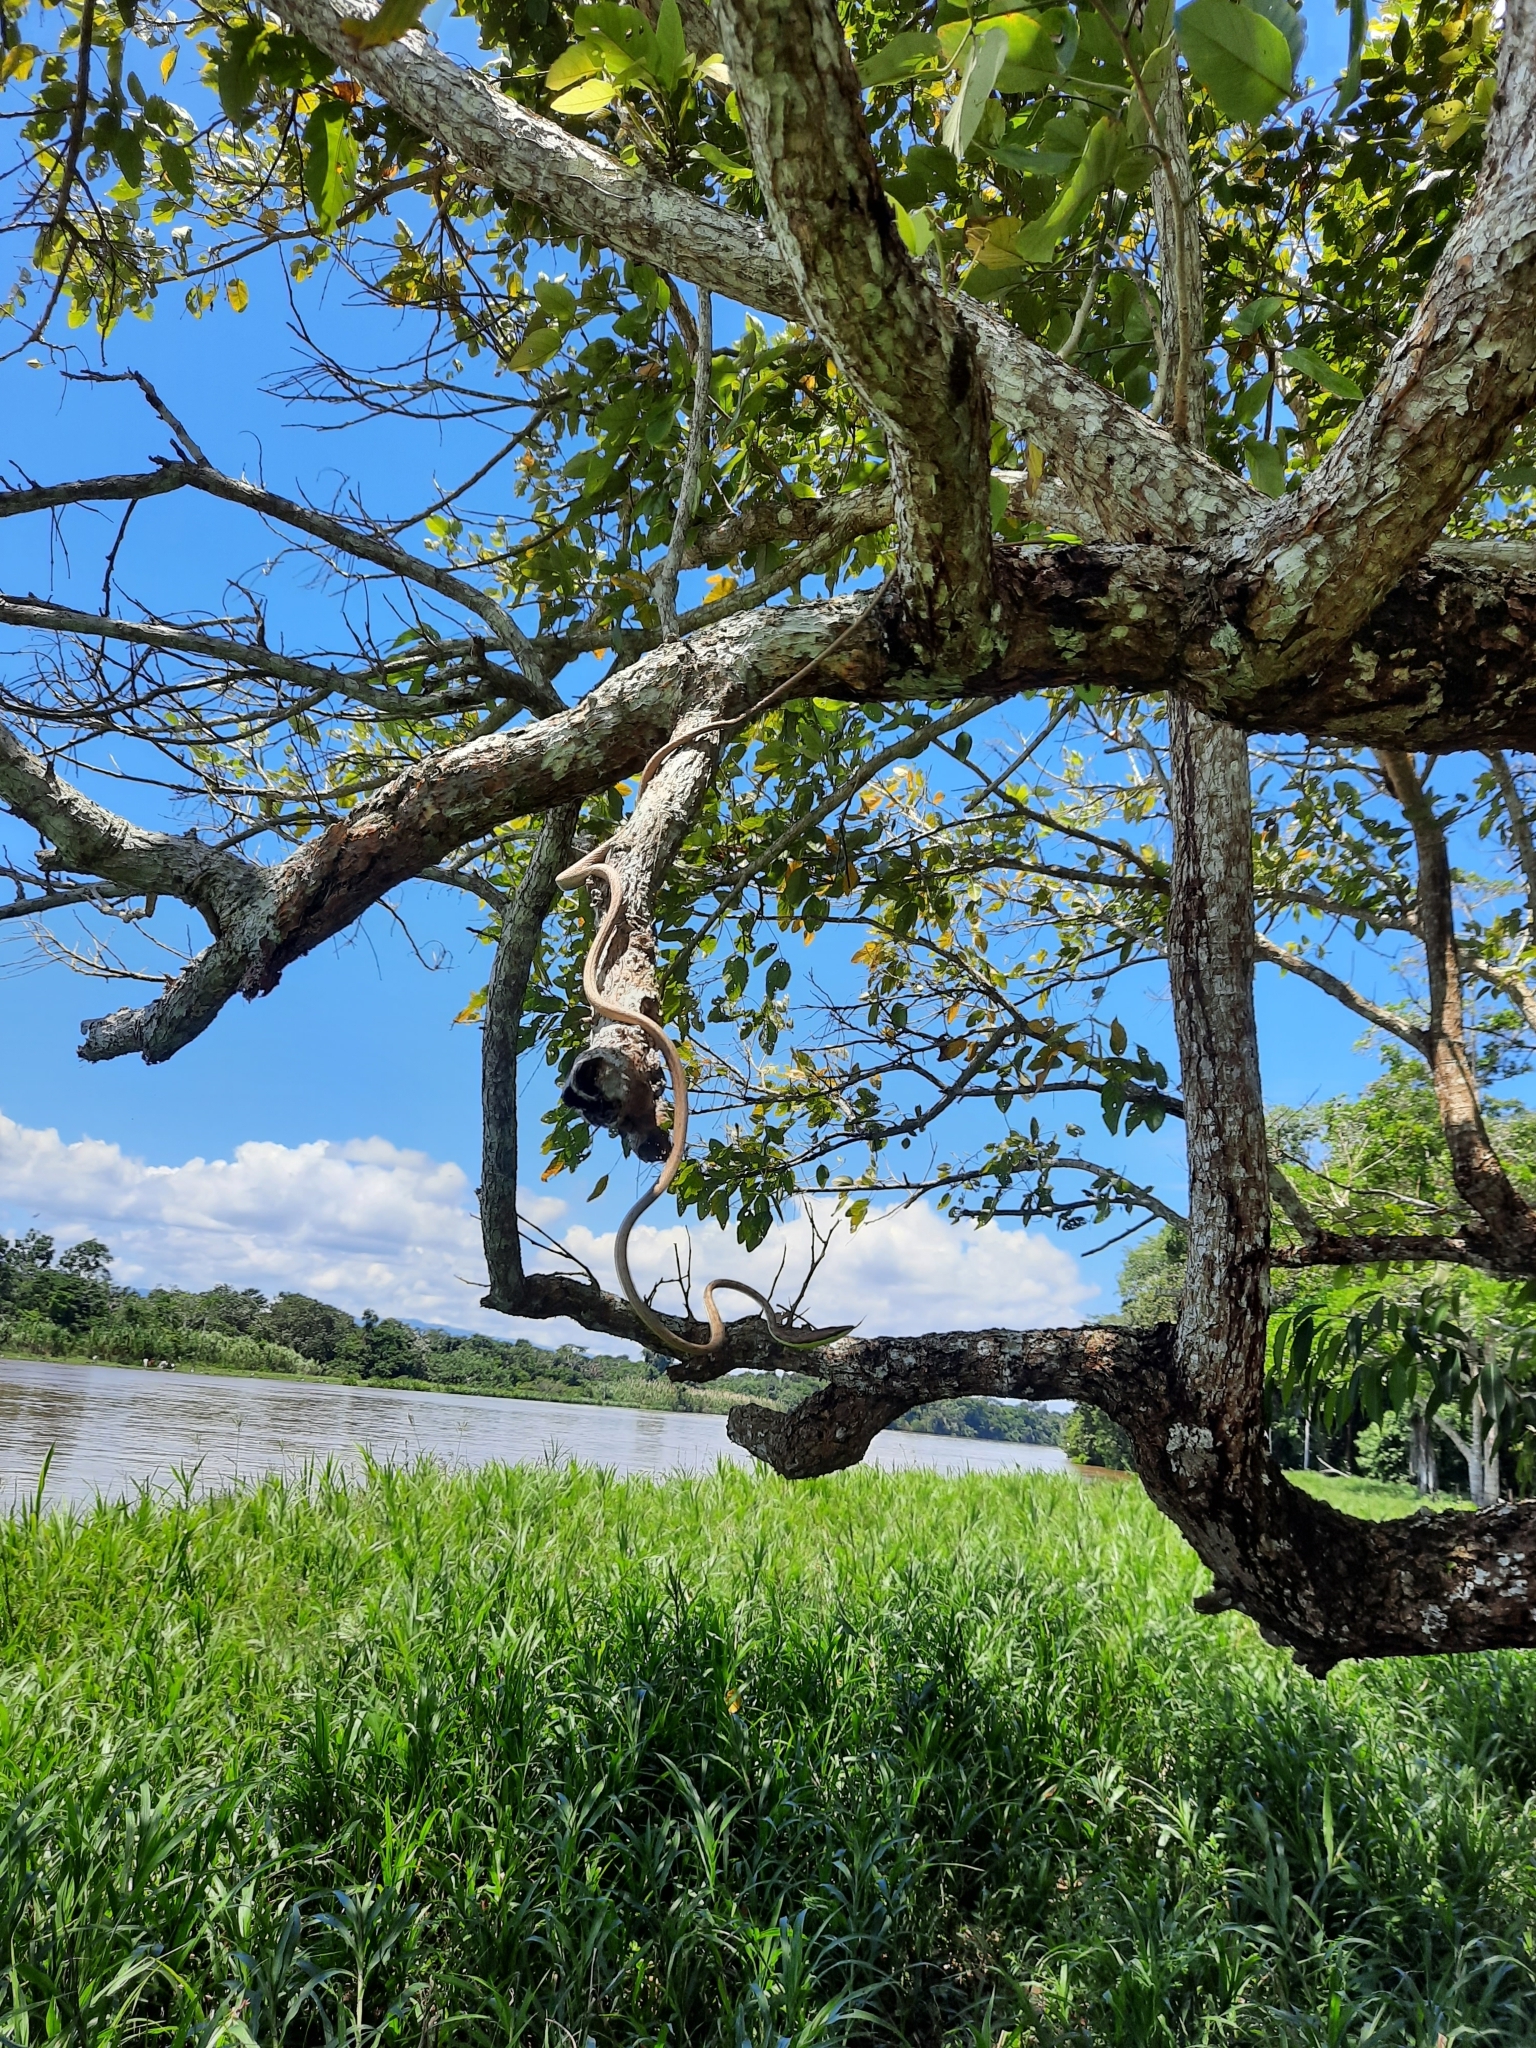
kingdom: Animalia
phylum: Chordata
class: Squamata
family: Colubridae
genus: Oxybelis
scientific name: Oxybelis vittatus
